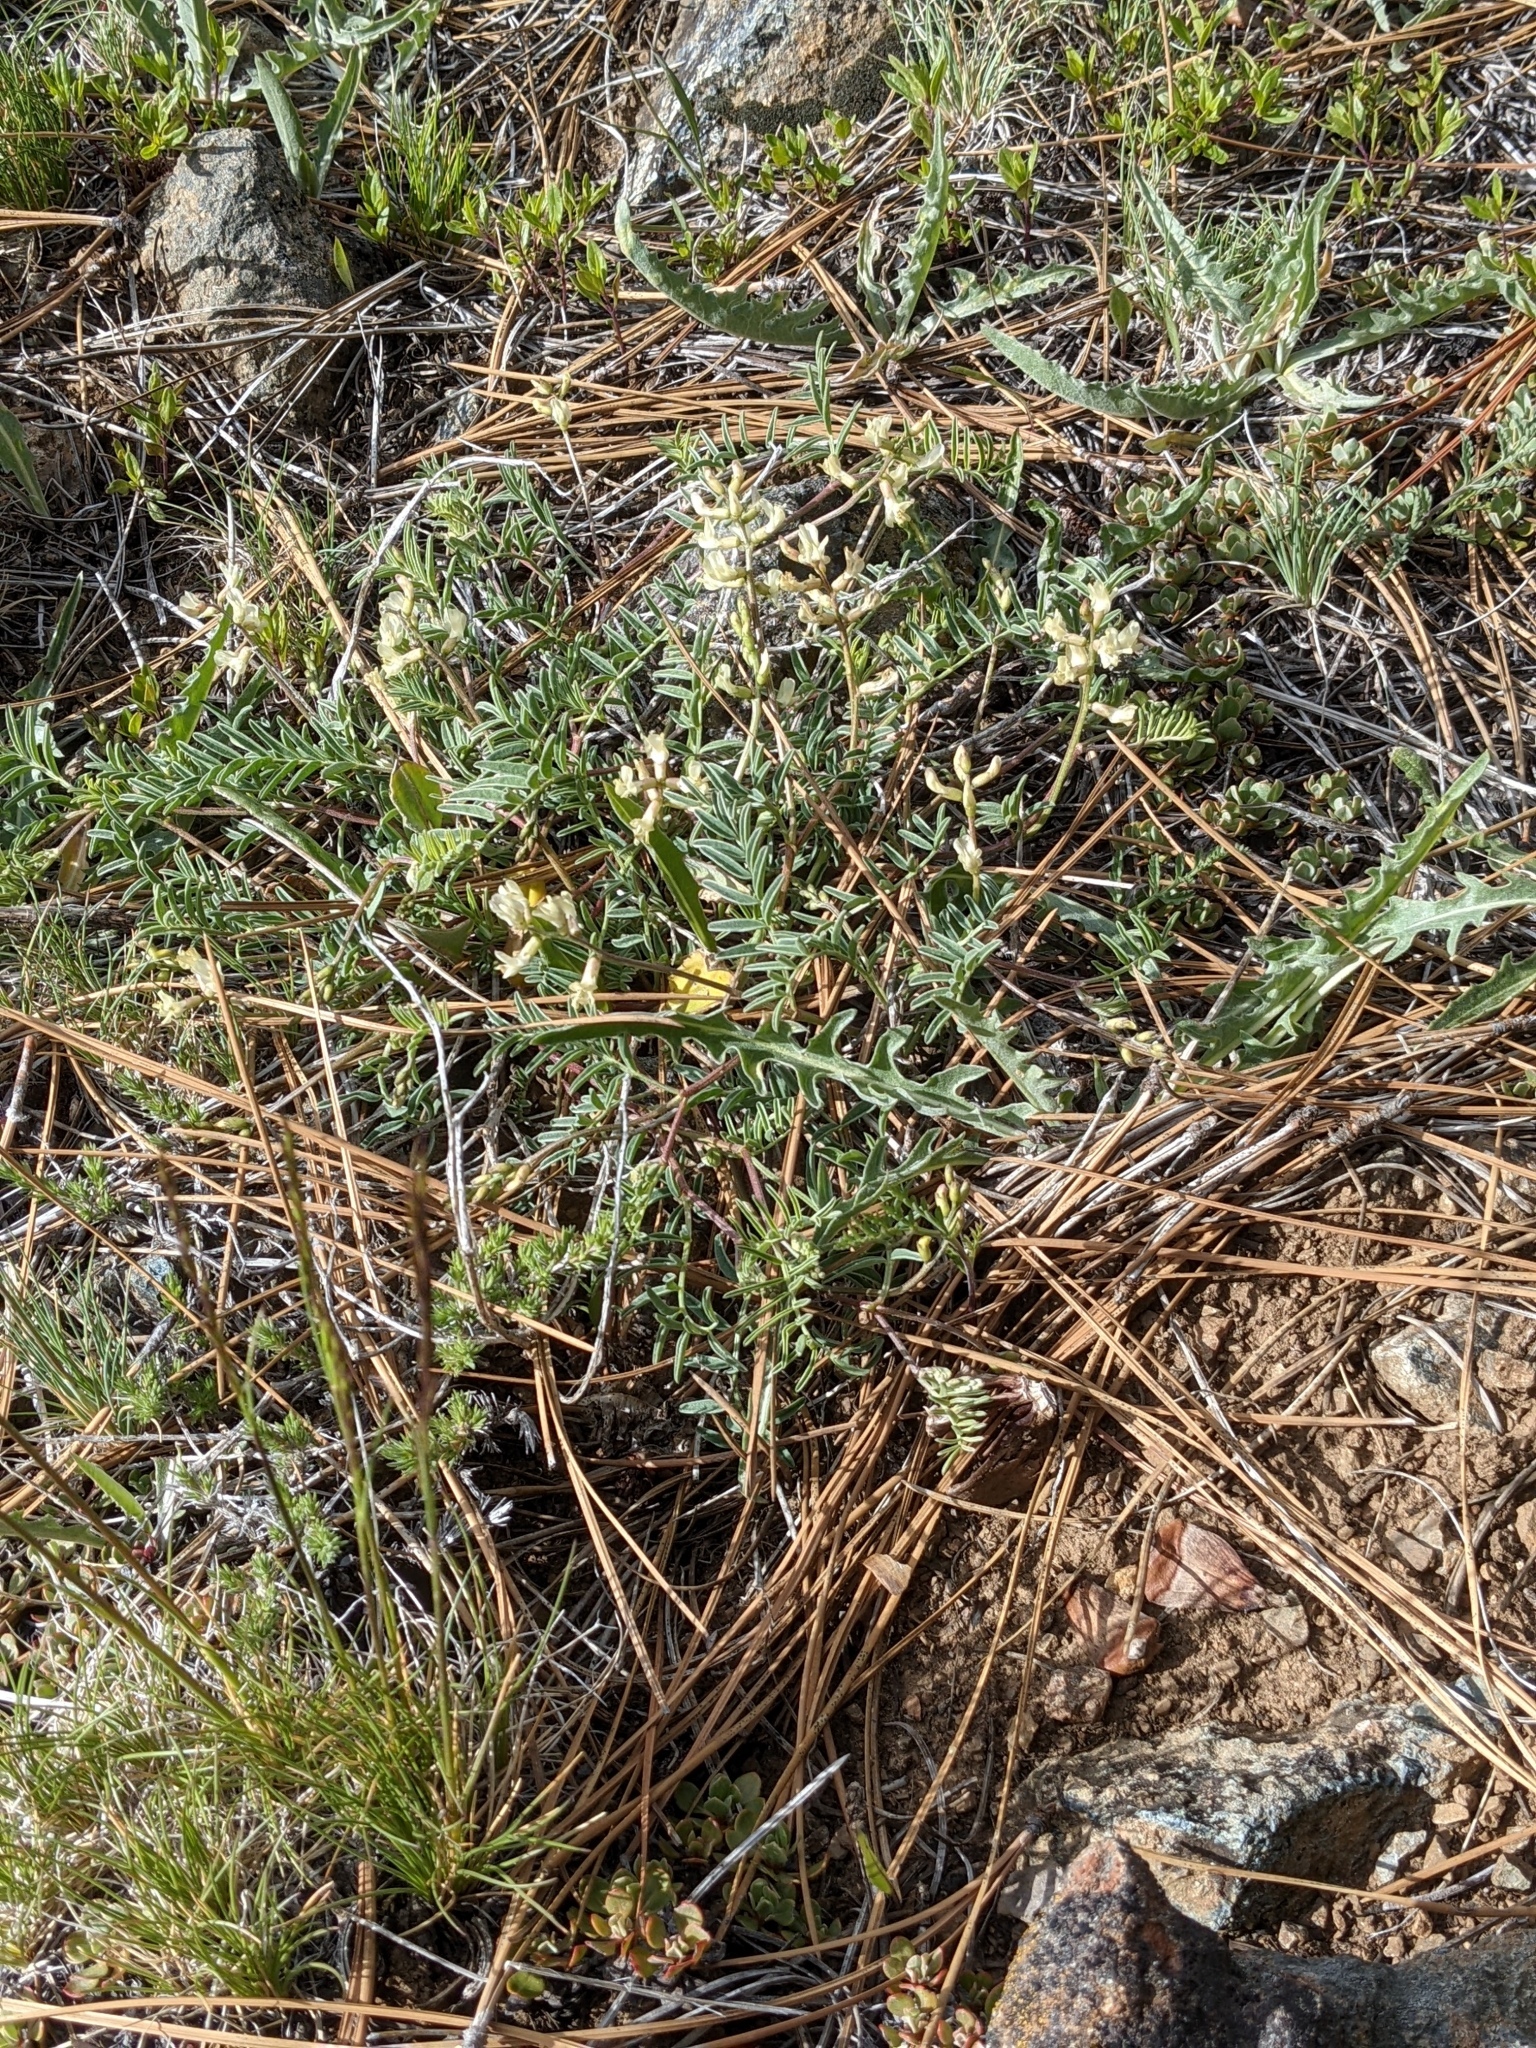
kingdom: Plantae
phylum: Tracheophyta
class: Magnoliopsida
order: Fabales
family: Fabaceae
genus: Astragalus
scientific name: Astragalus whitneyi
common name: Balloonpod milkvetch
